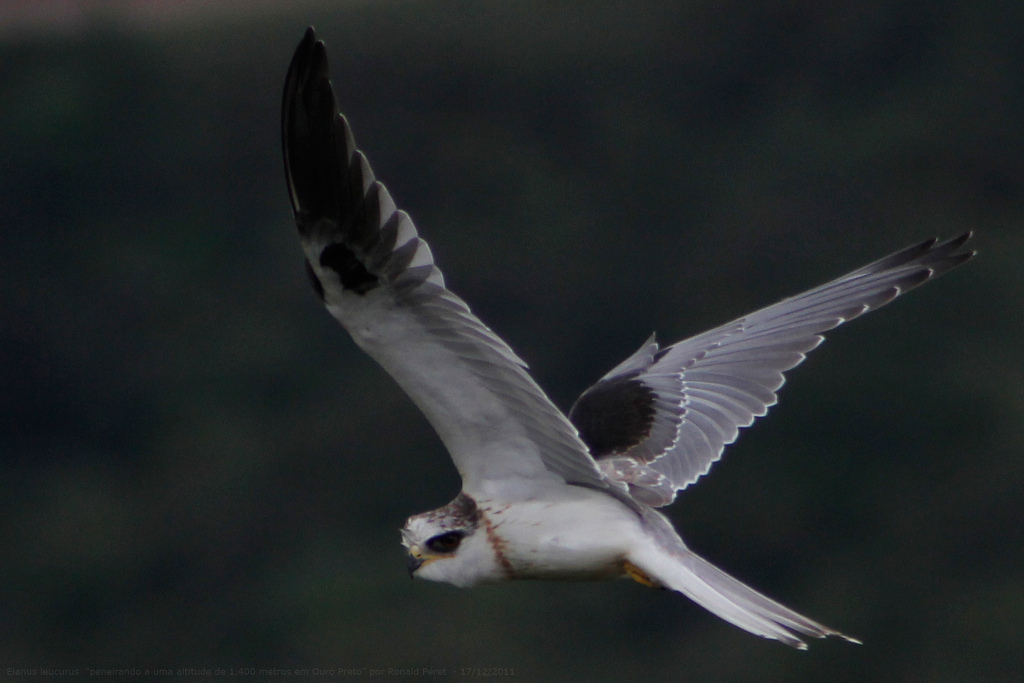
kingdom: Animalia
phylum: Chordata
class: Aves
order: Accipitriformes
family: Accipitridae
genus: Elanus
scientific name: Elanus leucurus
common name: White-tailed kite
